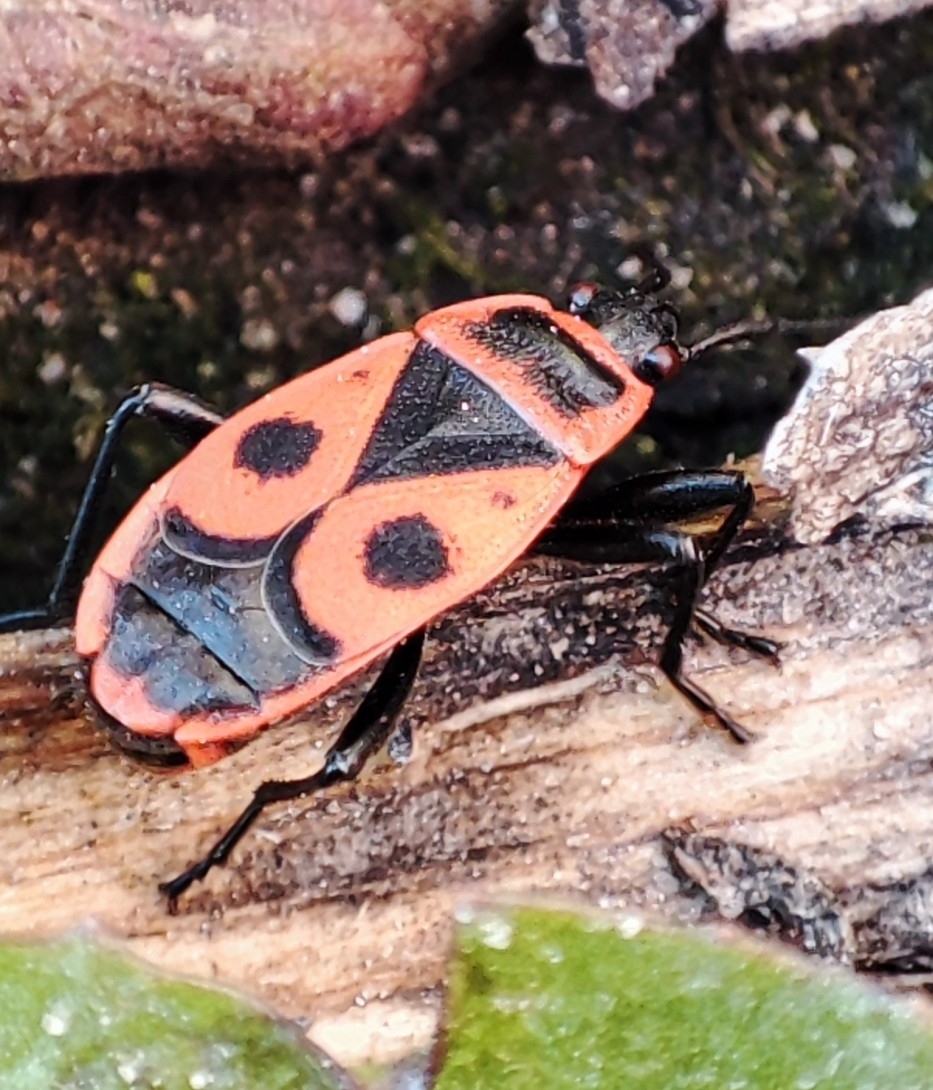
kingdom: Animalia
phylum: Arthropoda
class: Insecta
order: Hemiptera
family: Pyrrhocoridae
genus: Pyrrhocoris
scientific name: Pyrrhocoris apterus
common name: Firebug
